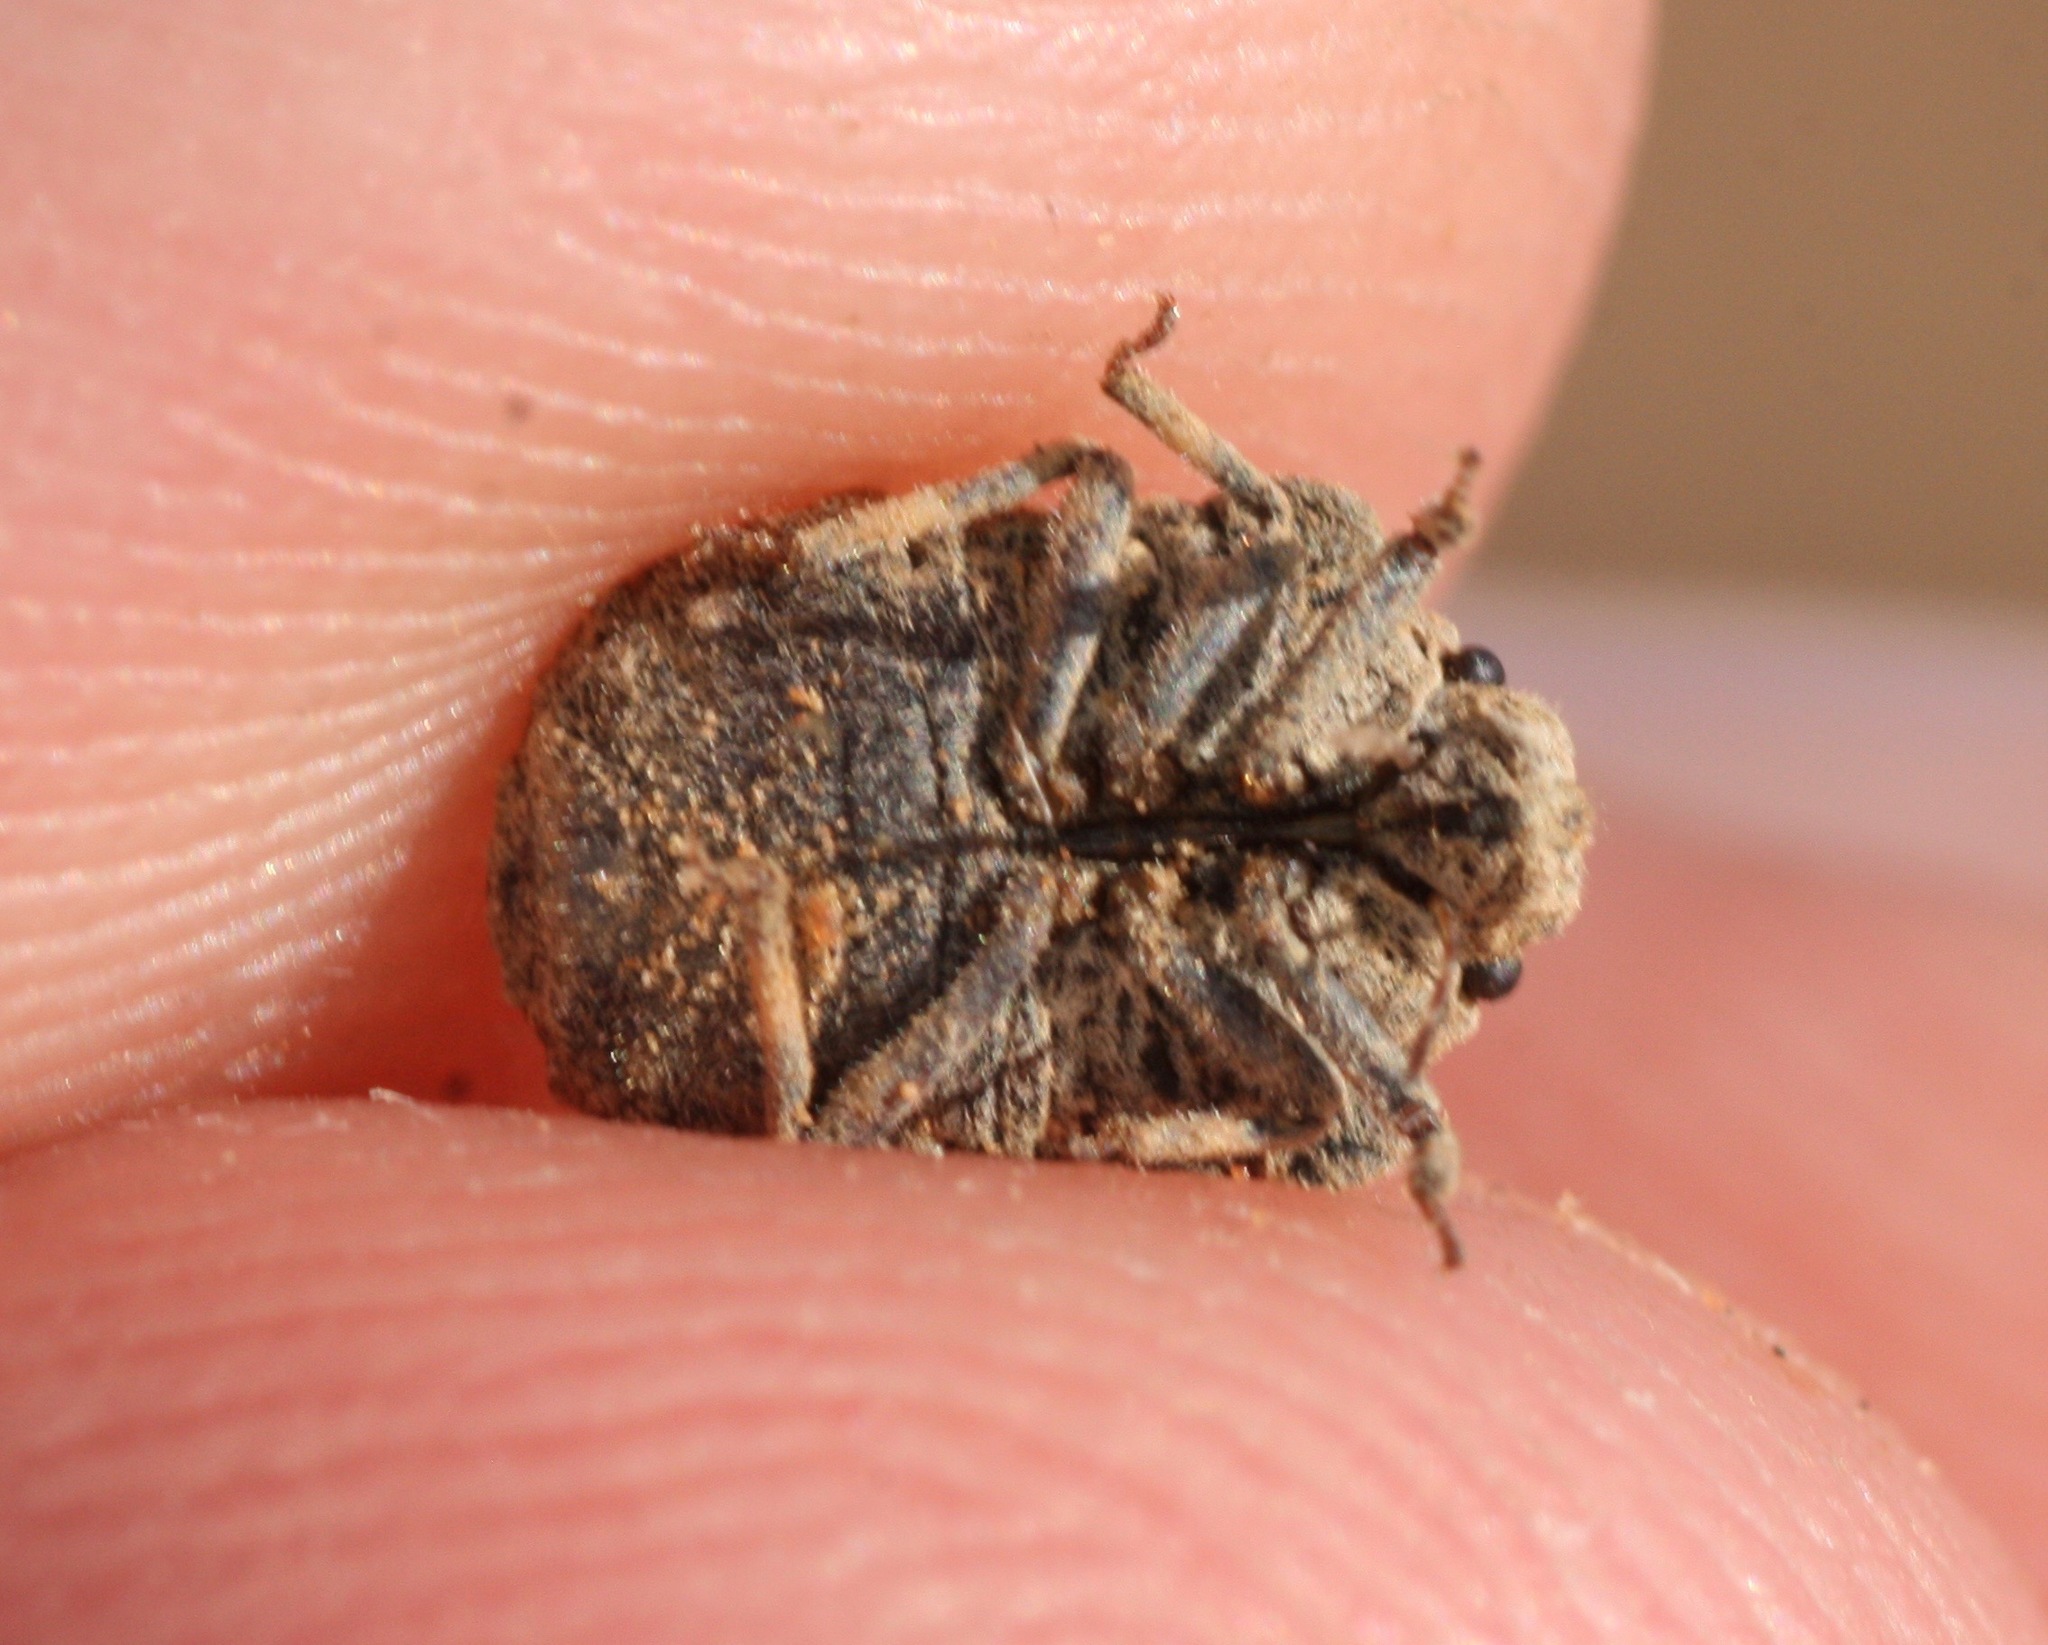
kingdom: Animalia
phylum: Arthropoda
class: Insecta
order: Hemiptera
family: Scutelleridae
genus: Euptychodera
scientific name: Euptychodera corrugata
